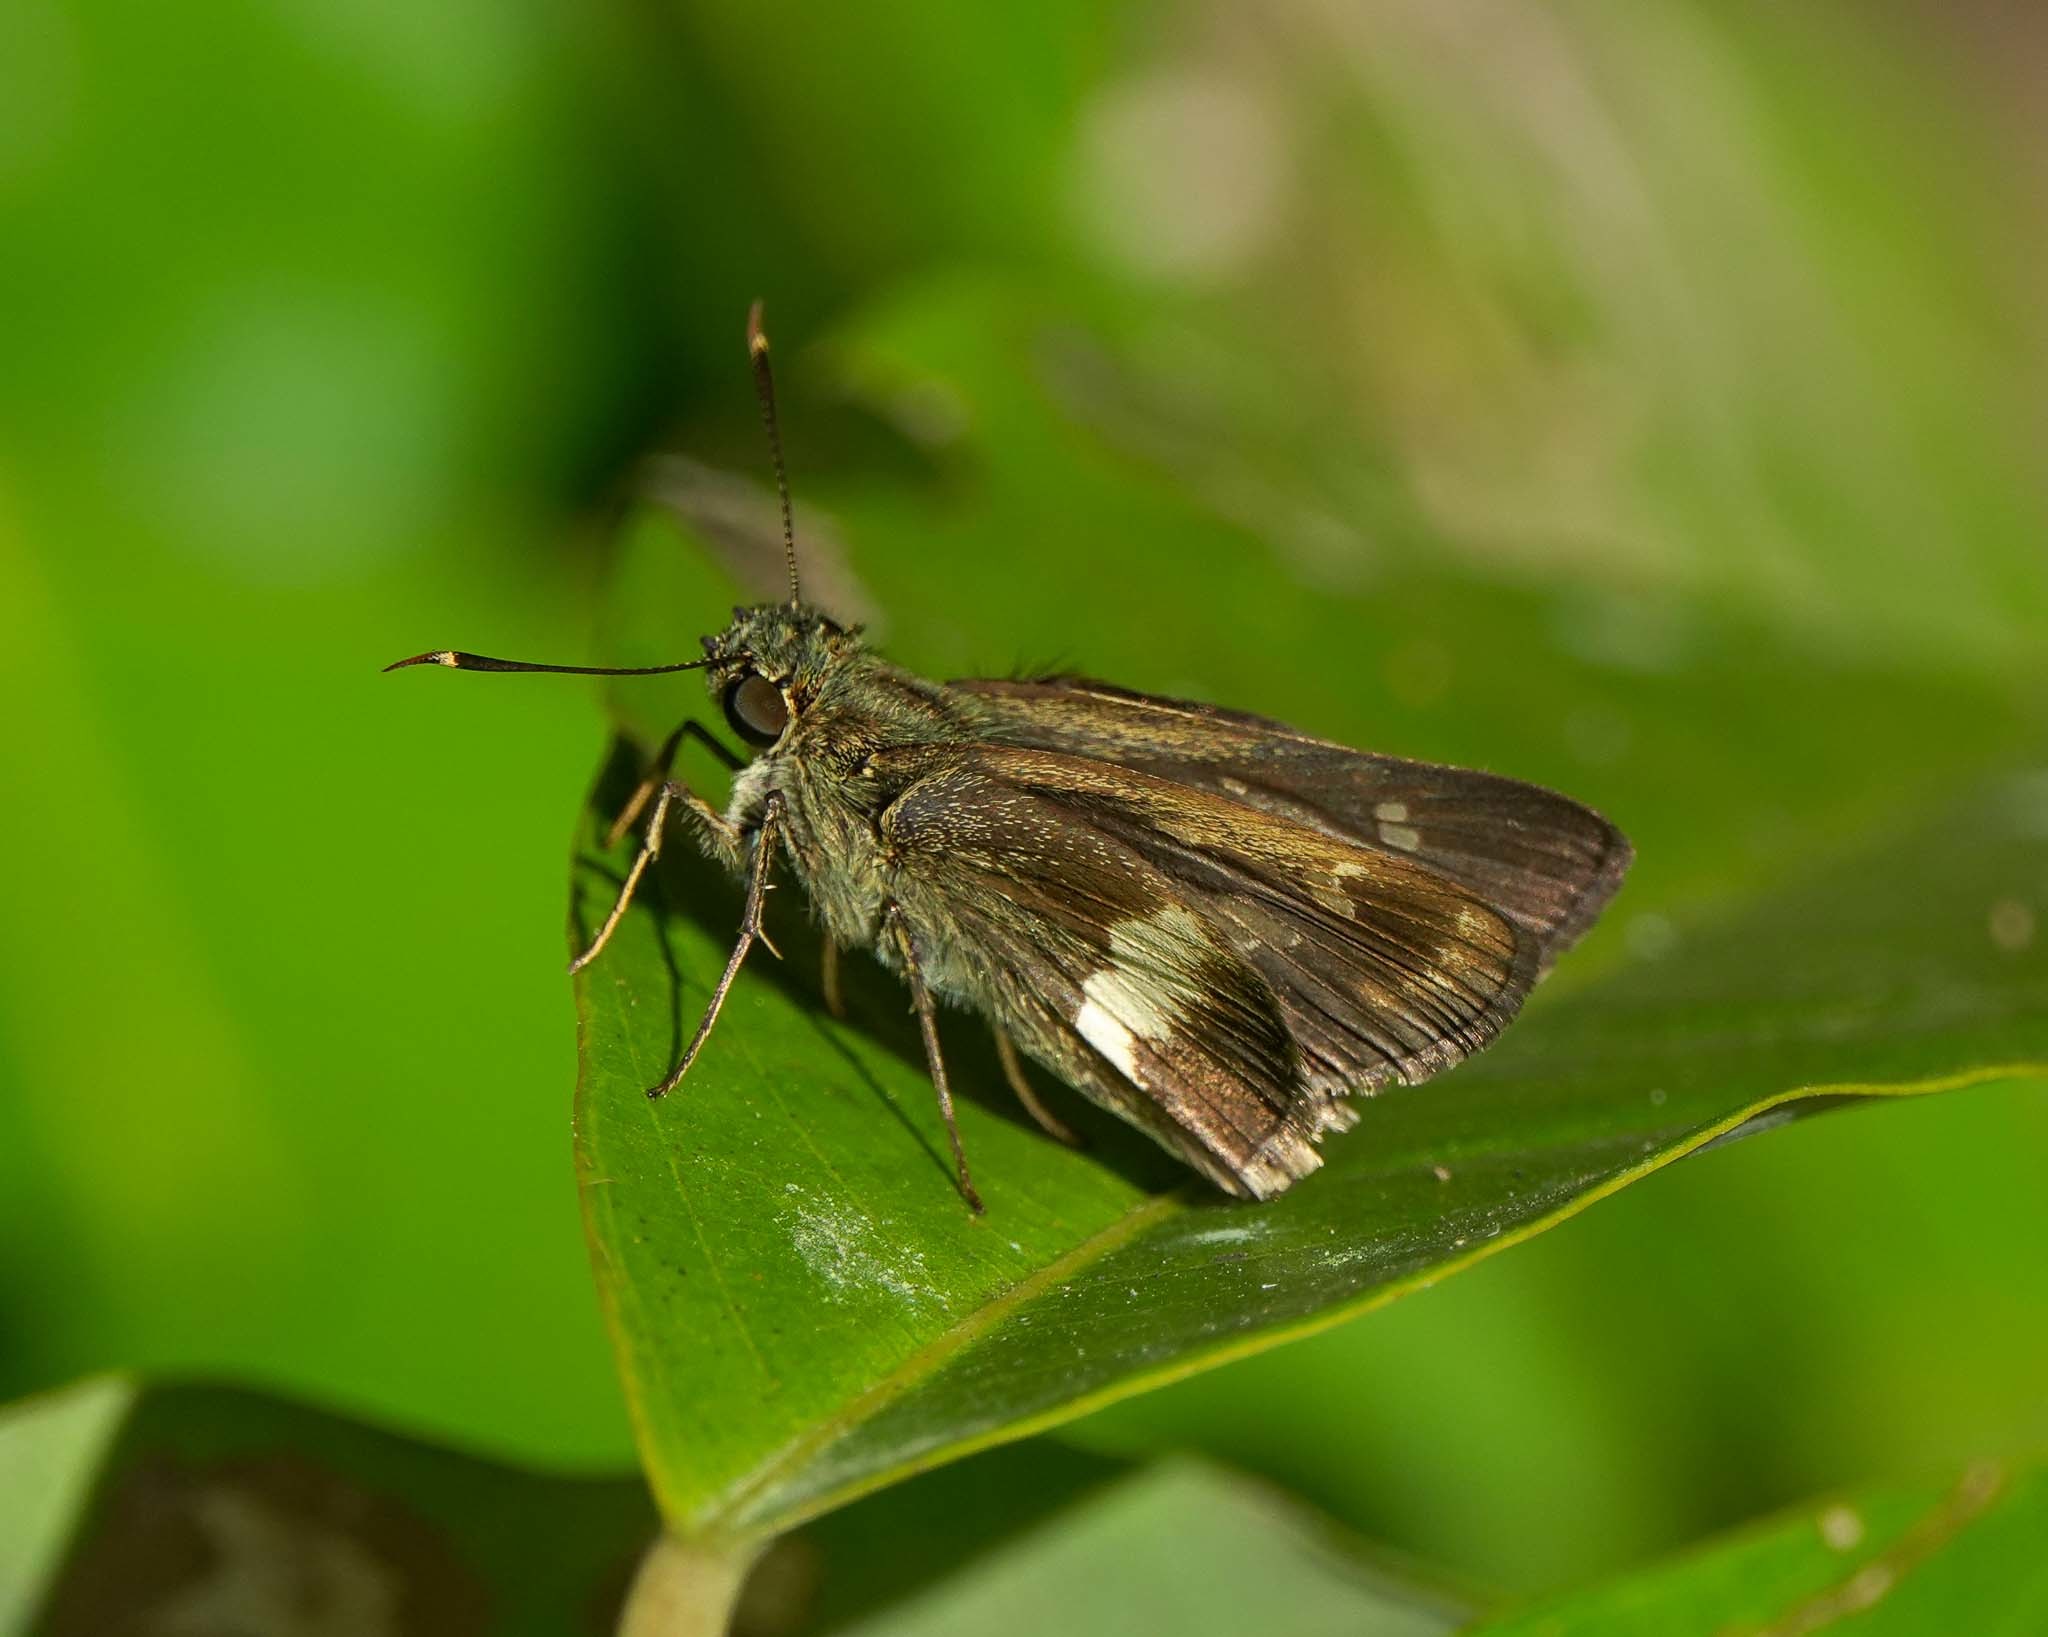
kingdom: Animalia
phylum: Arthropoda
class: Insecta
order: Lepidoptera
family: Hesperiidae
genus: Halpe
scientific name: Halpe zema
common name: Dark banded ace
